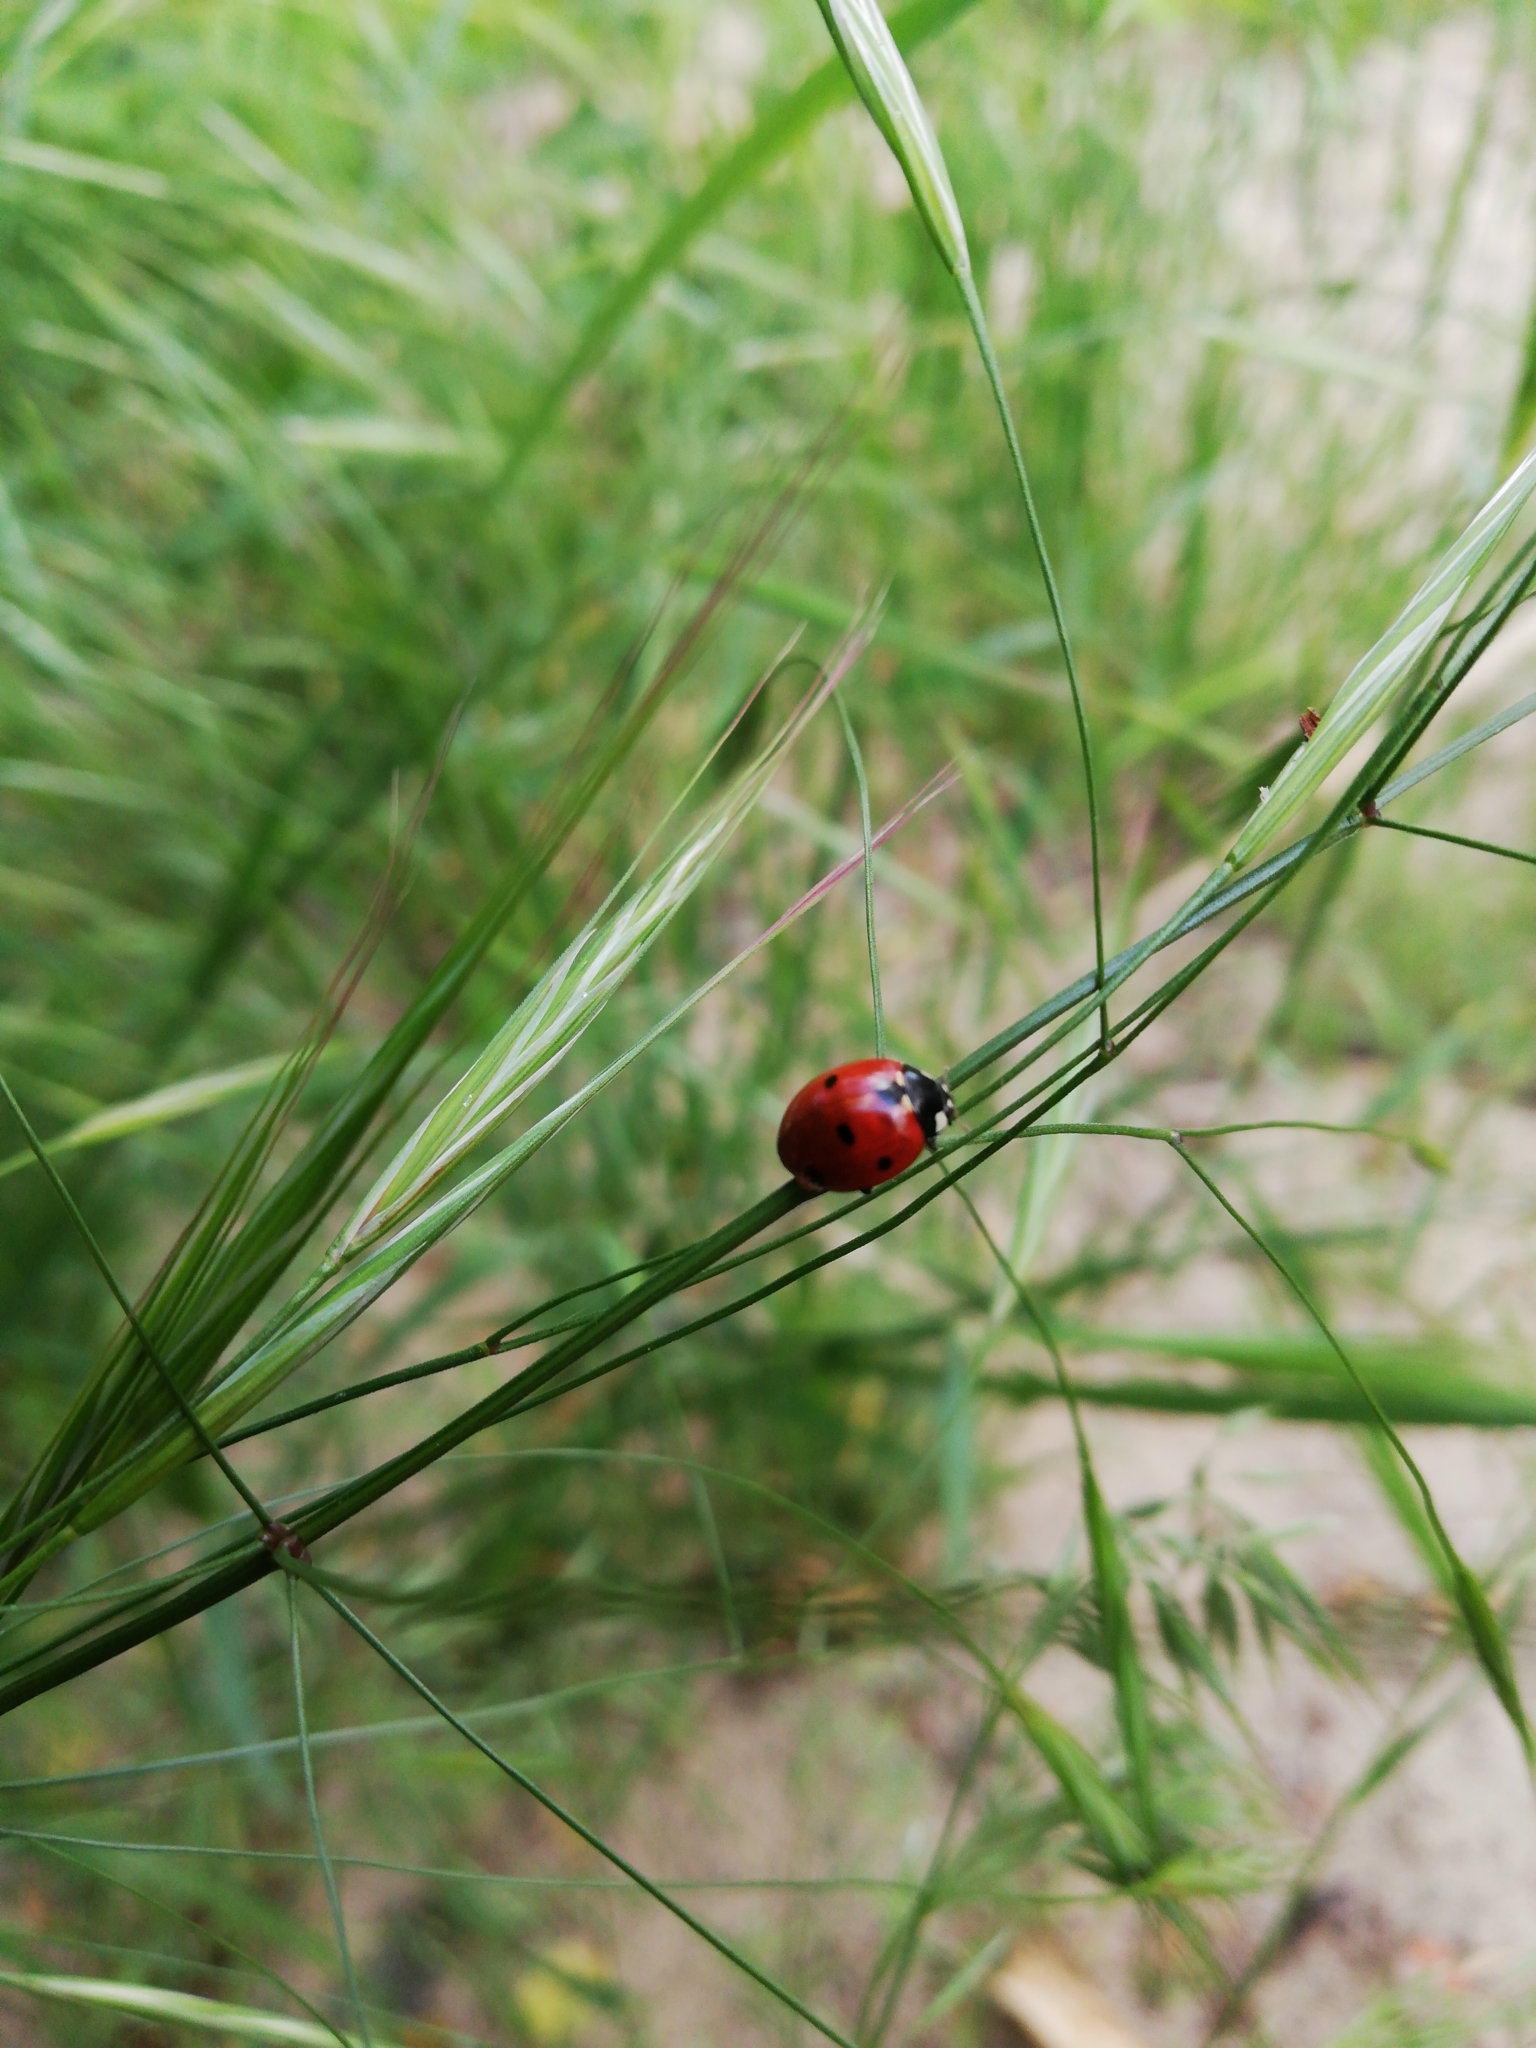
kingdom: Animalia
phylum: Arthropoda
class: Insecta
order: Coleoptera
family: Coccinellidae
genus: Coccinella
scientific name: Coccinella septempunctata
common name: Sevenspotted lady beetle
